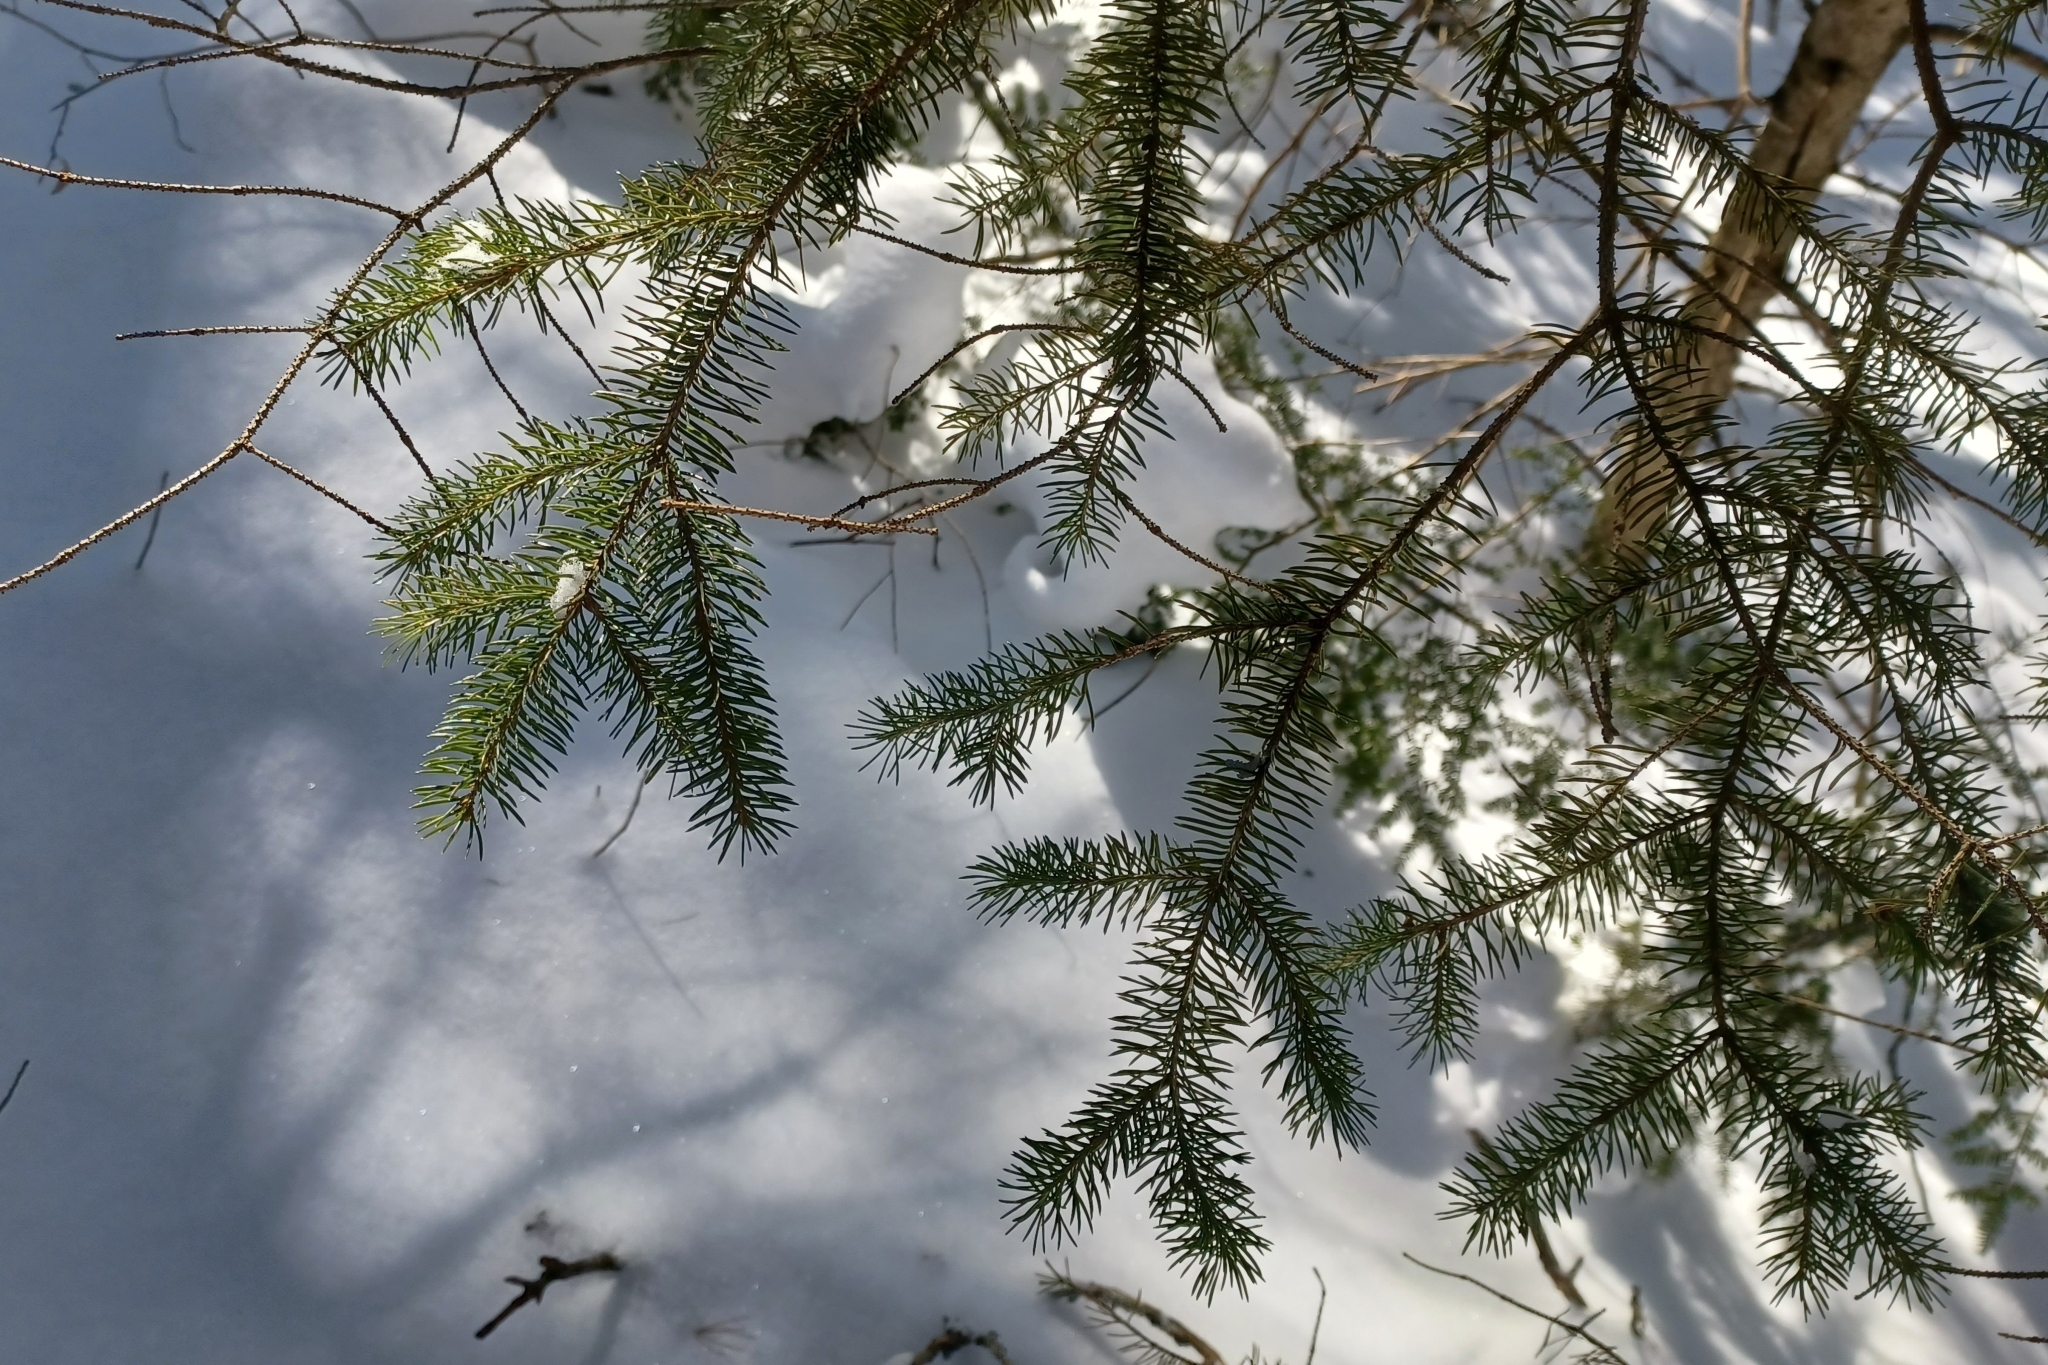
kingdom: Plantae
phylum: Tracheophyta
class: Pinopsida
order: Pinales
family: Pinaceae
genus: Picea
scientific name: Picea glauca
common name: White spruce
